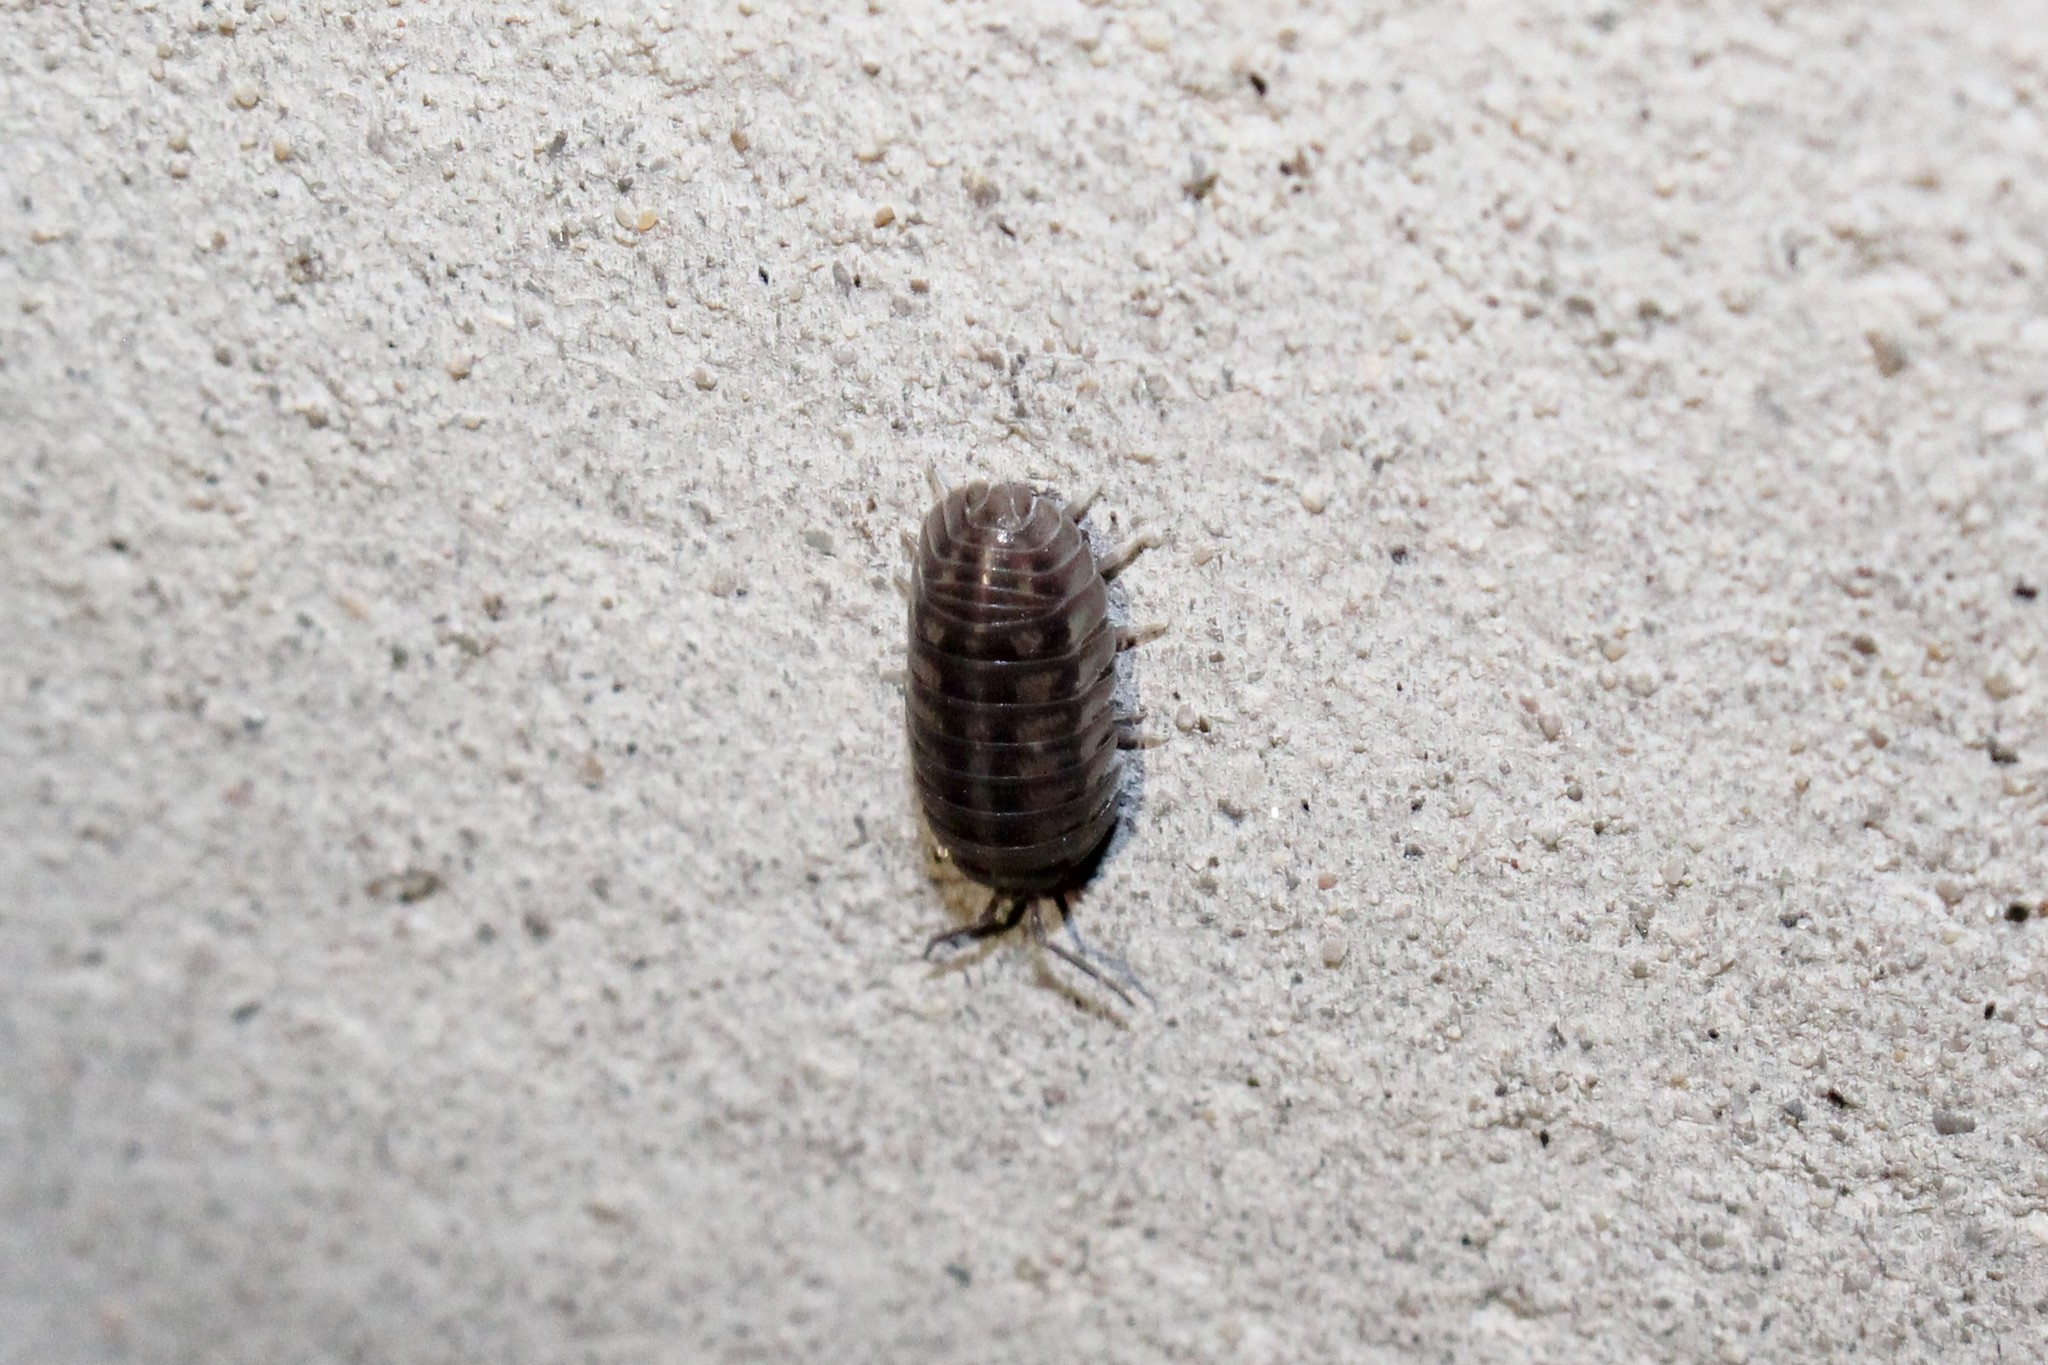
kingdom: Animalia
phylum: Arthropoda
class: Malacostraca
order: Isopoda
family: Armadillidiidae
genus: Armadillidium
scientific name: Armadillidium nasatum
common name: Isopod
